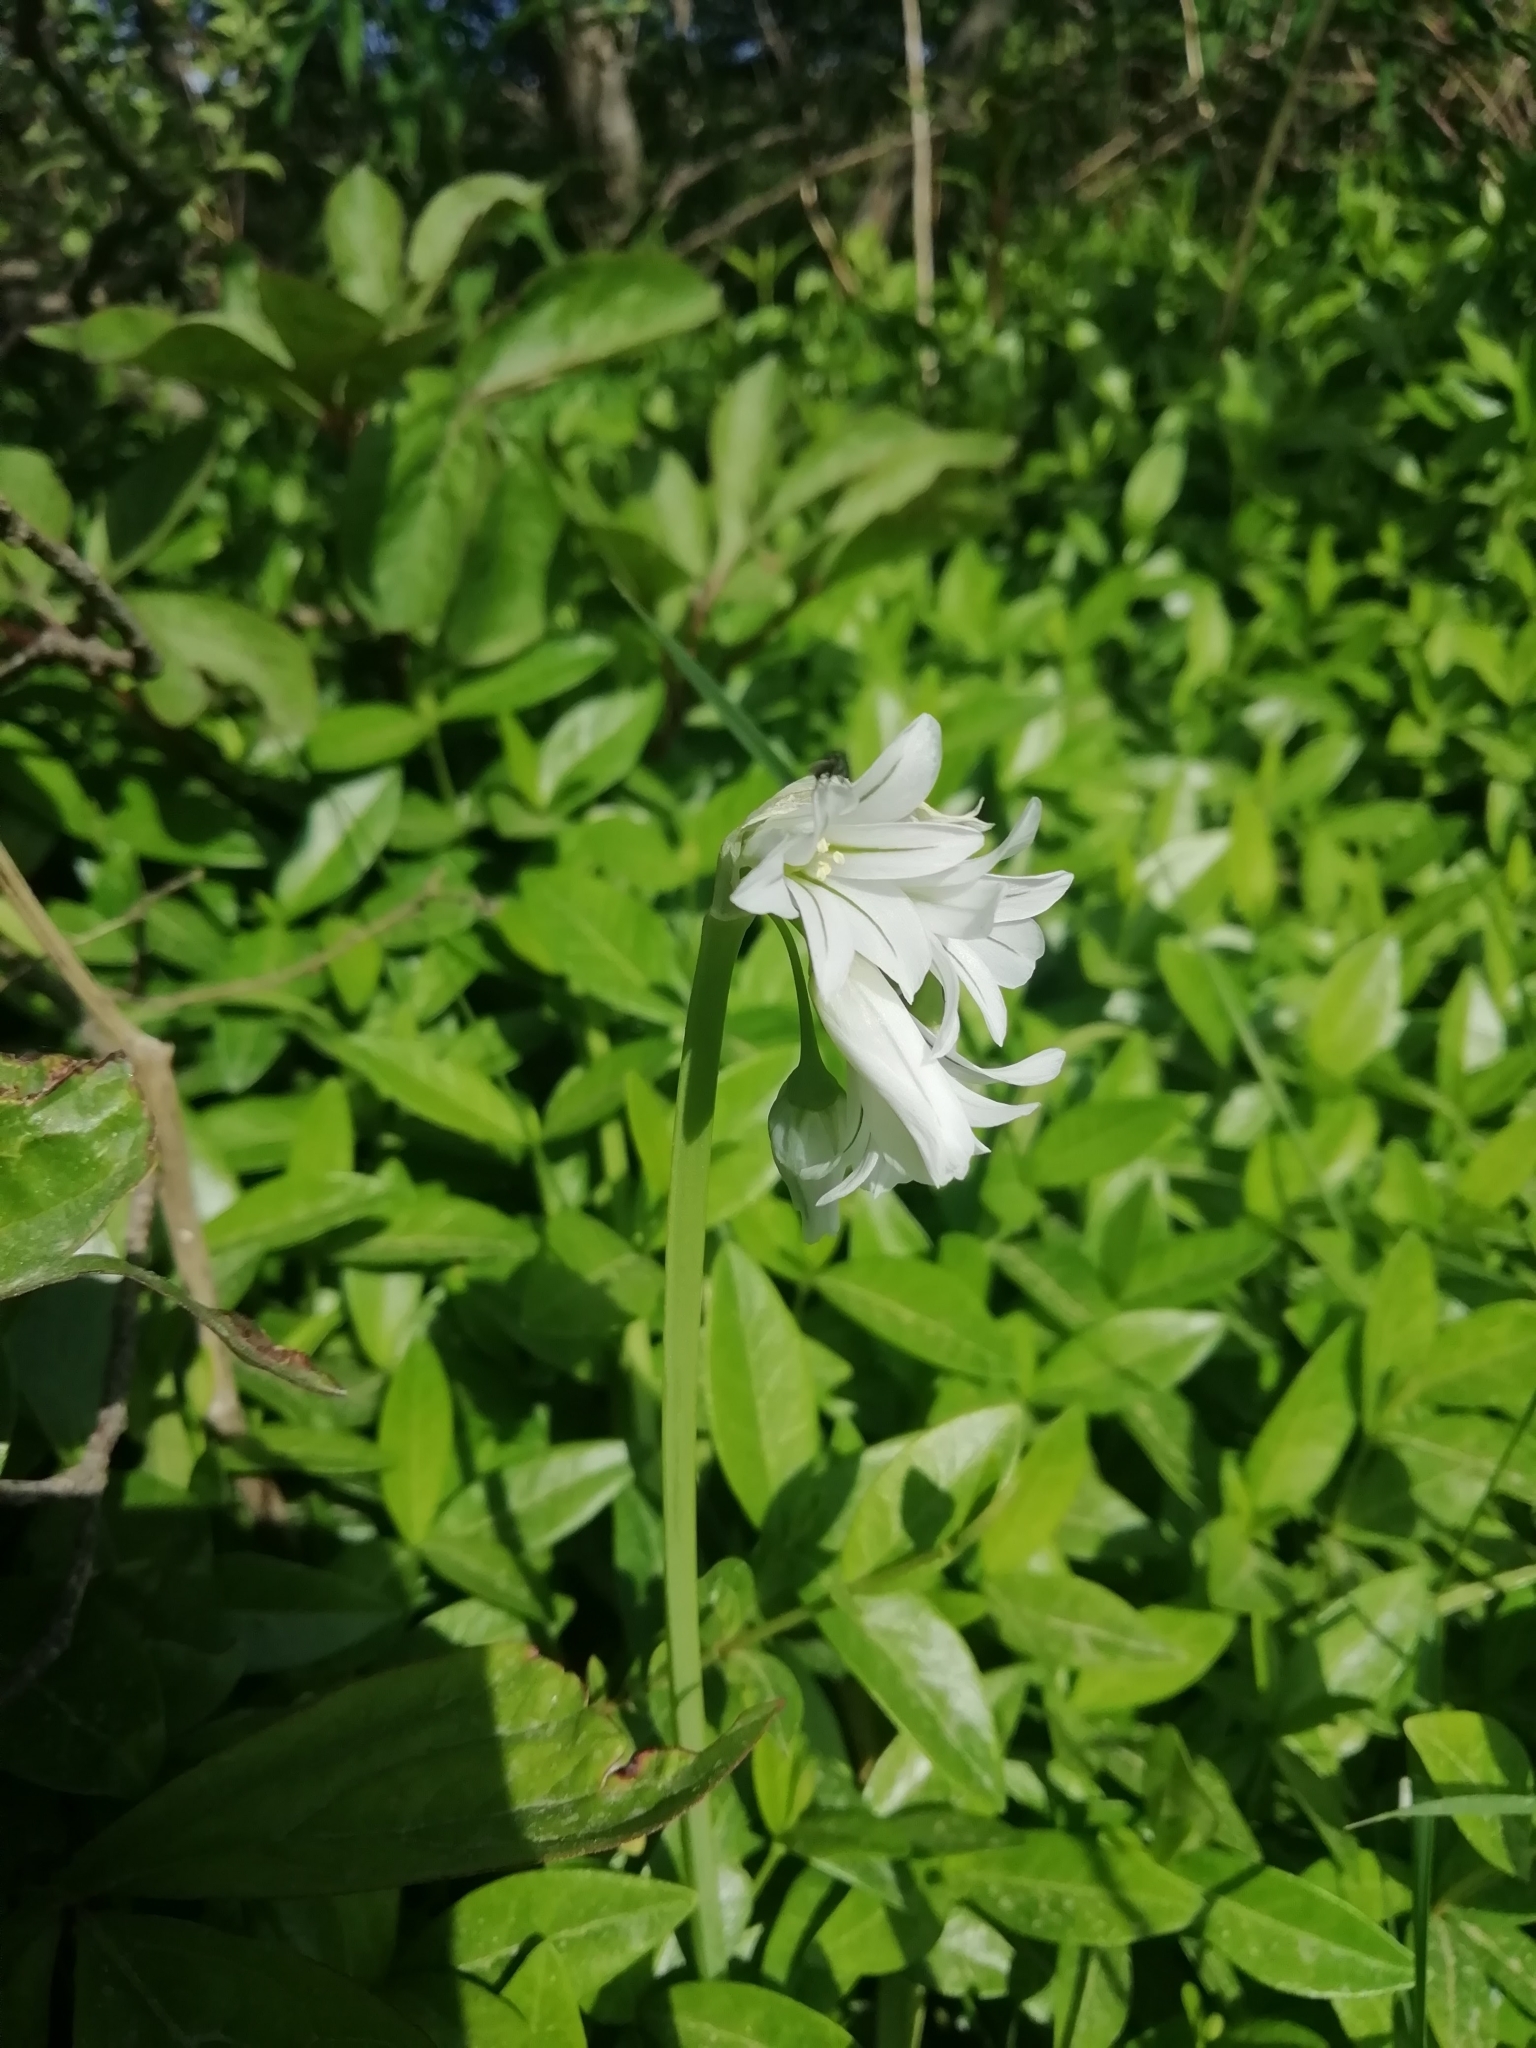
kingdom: Plantae
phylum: Tracheophyta
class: Liliopsida
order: Asparagales
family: Amaryllidaceae
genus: Allium
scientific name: Allium triquetrum
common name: Three-cornered garlic
